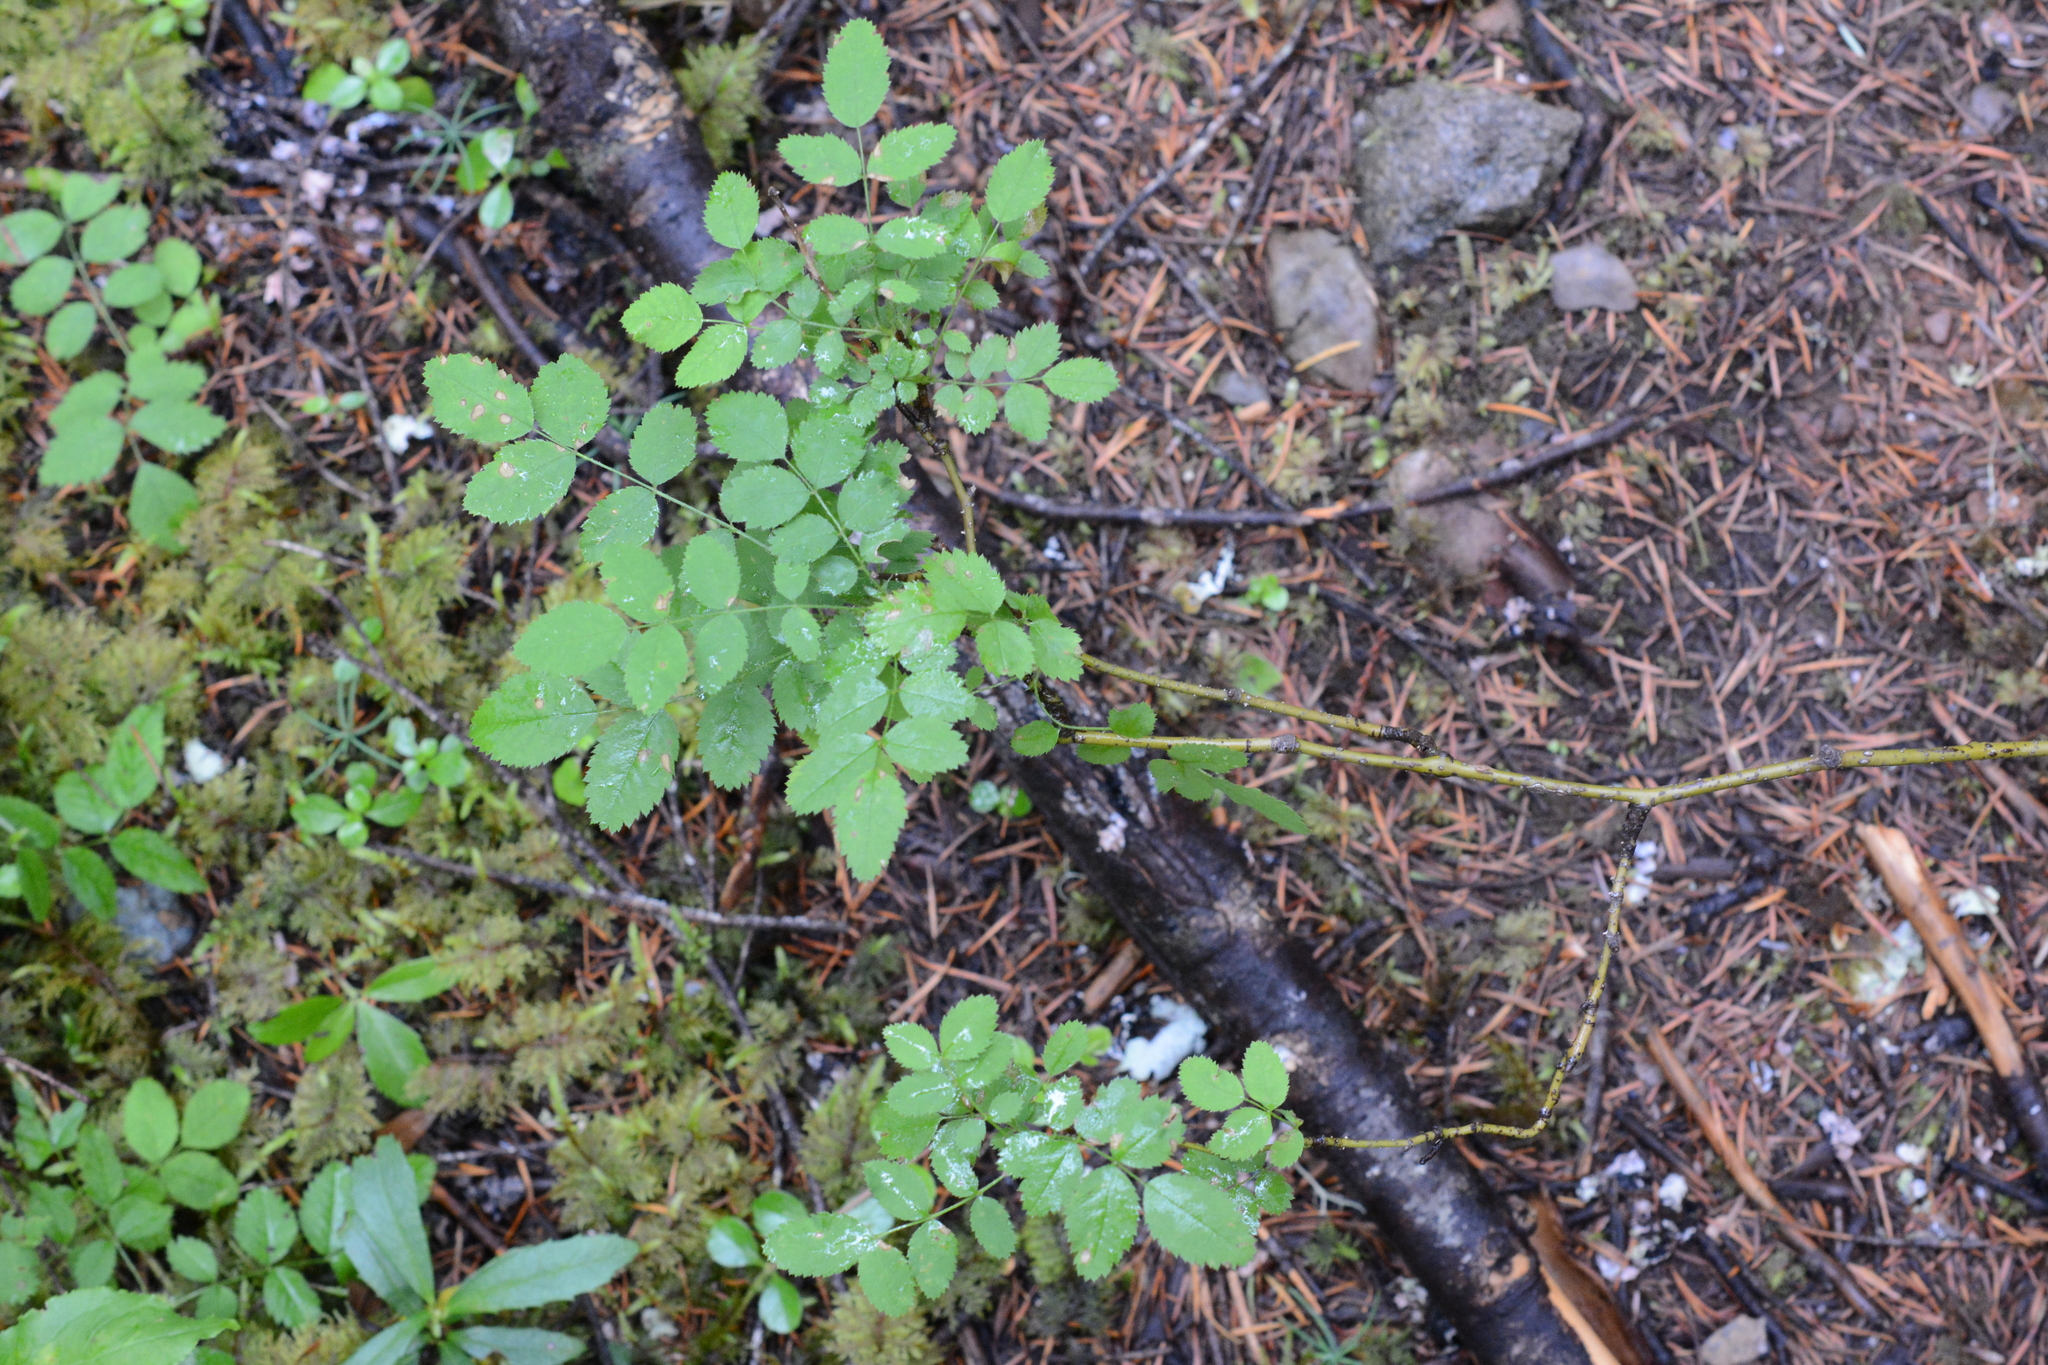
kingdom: Plantae
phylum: Tracheophyta
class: Magnoliopsida
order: Rosales
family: Rosaceae
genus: Rosa
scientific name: Rosa gymnocarpa
